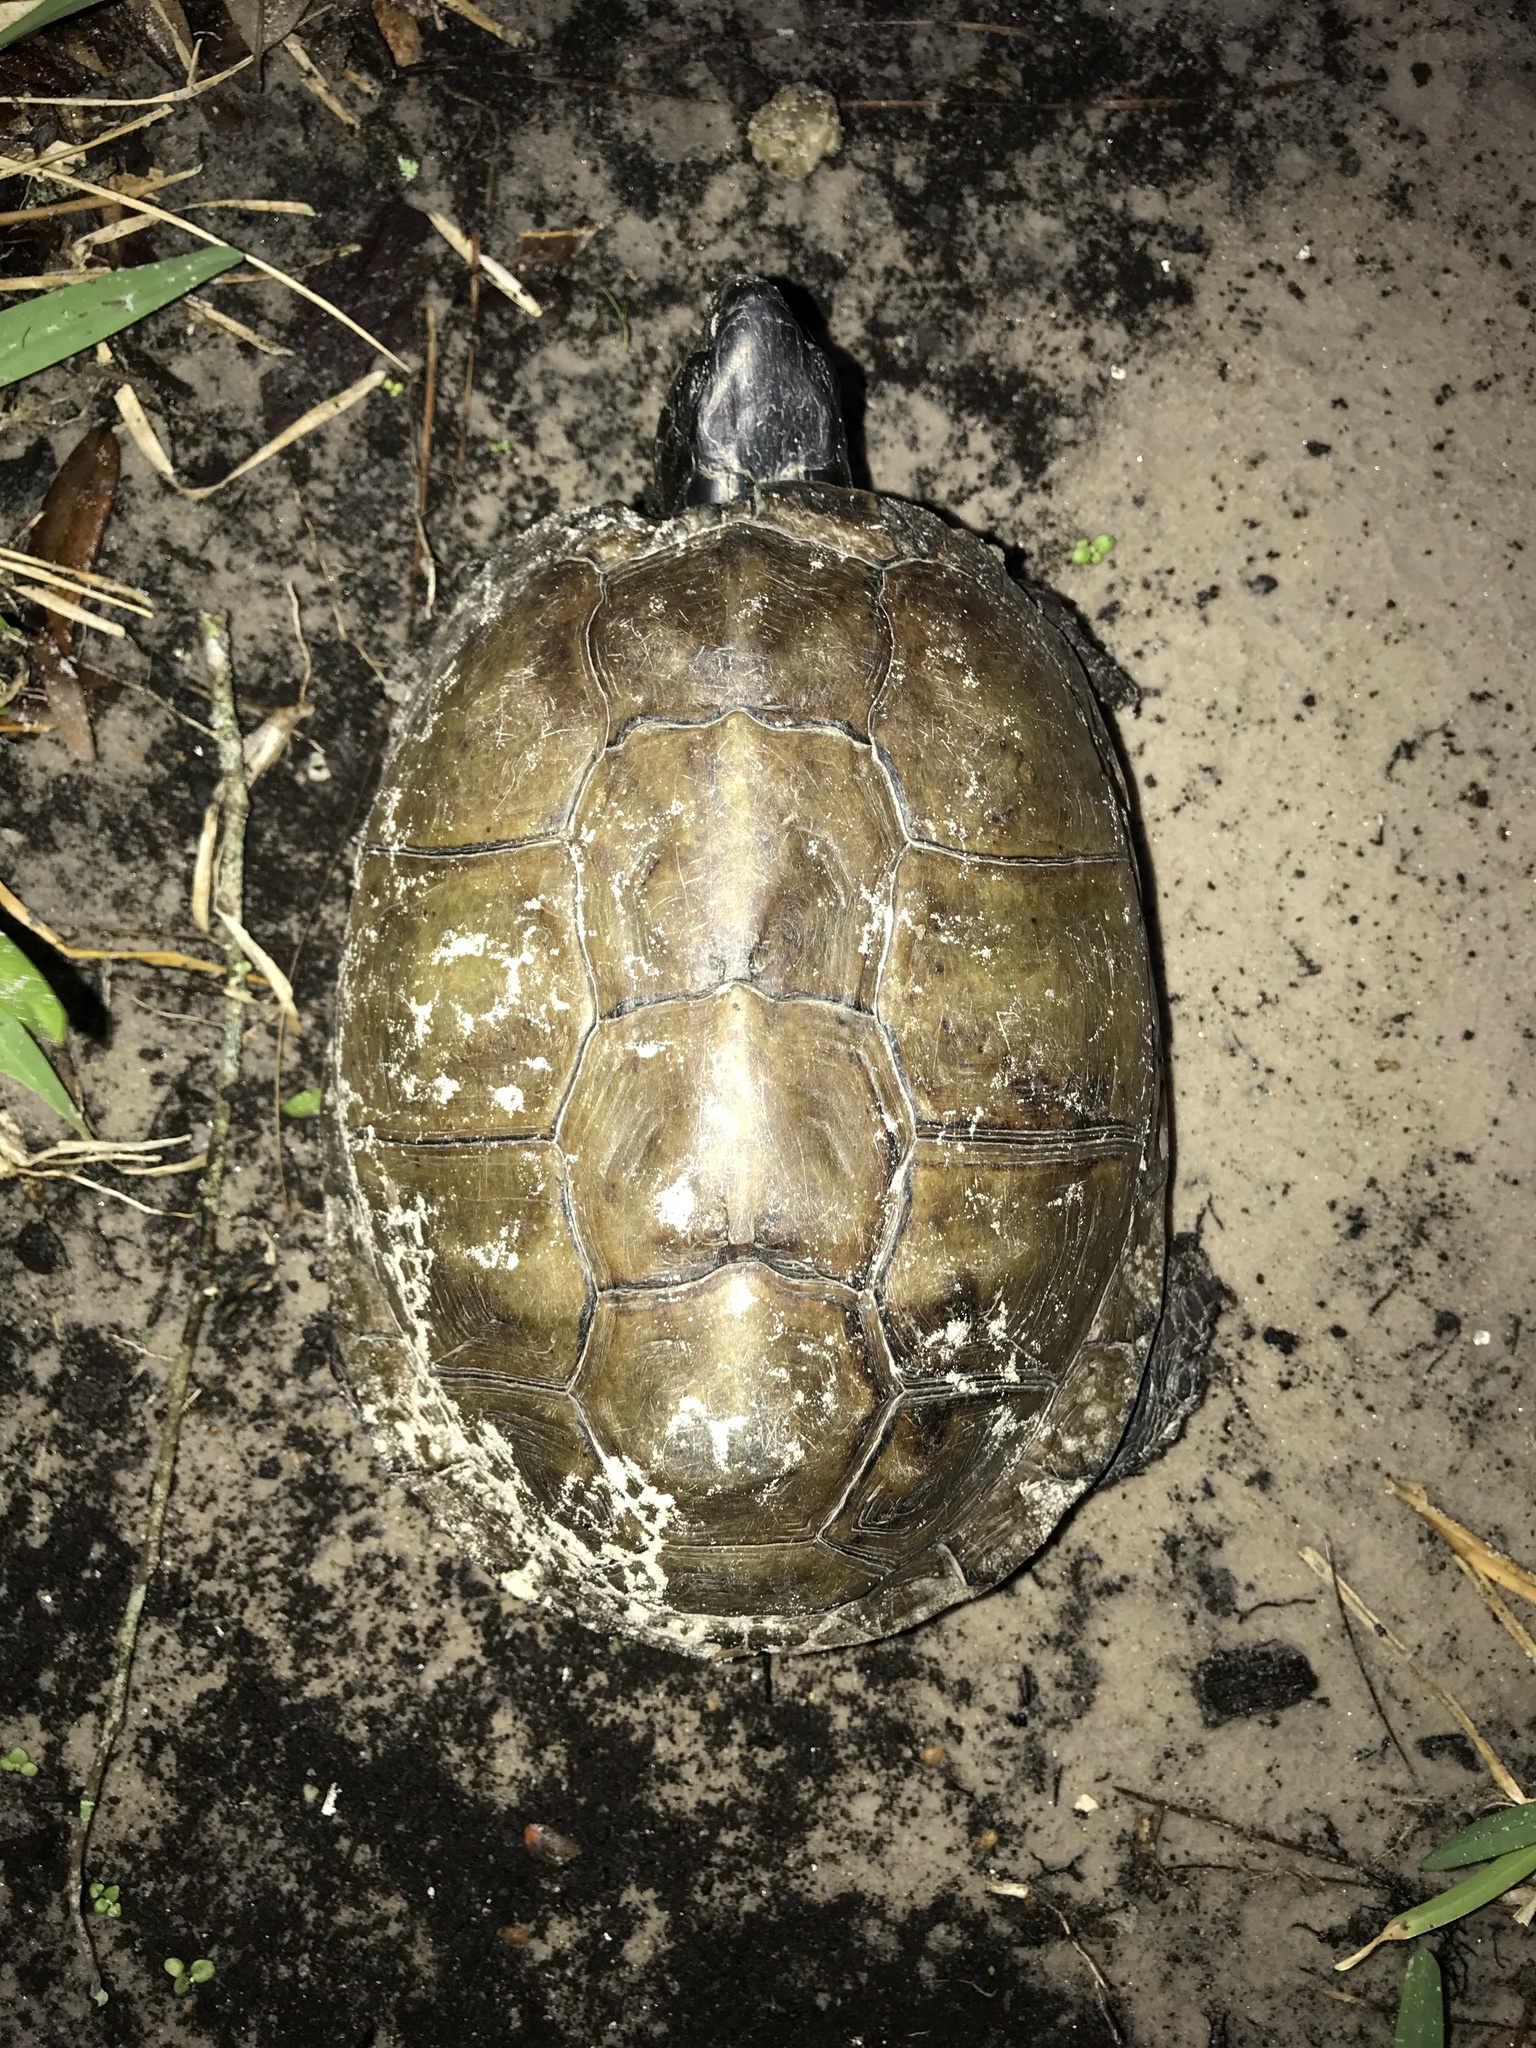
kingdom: Animalia
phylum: Chordata
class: Testudines
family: Emydidae
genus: Terrapene
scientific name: Terrapene carolina
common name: Common box turtle
